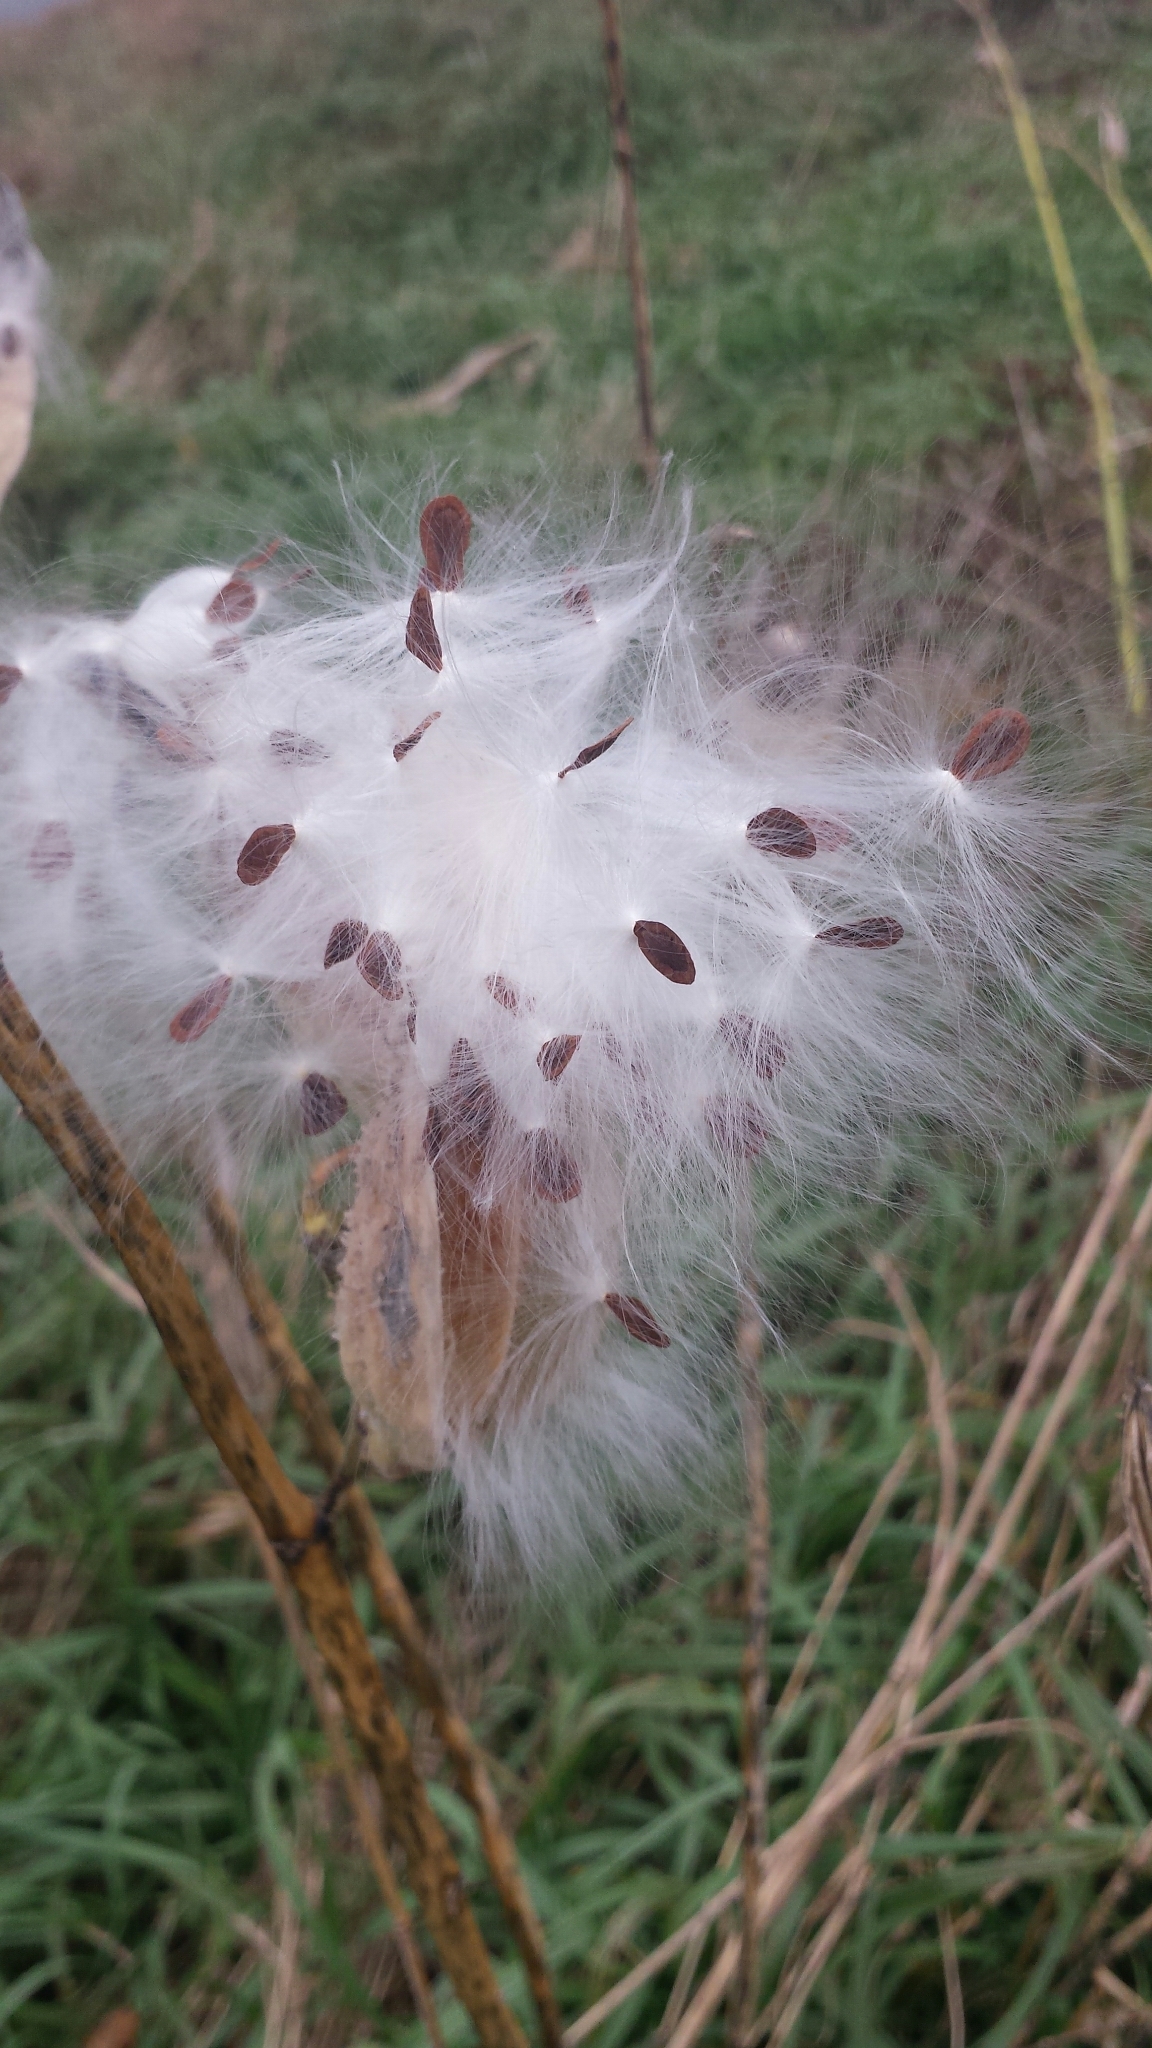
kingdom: Plantae
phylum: Tracheophyta
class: Magnoliopsida
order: Gentianales
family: Apocynaceae
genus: Asclepias
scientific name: Asclepias syriaca
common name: Common milkweed
